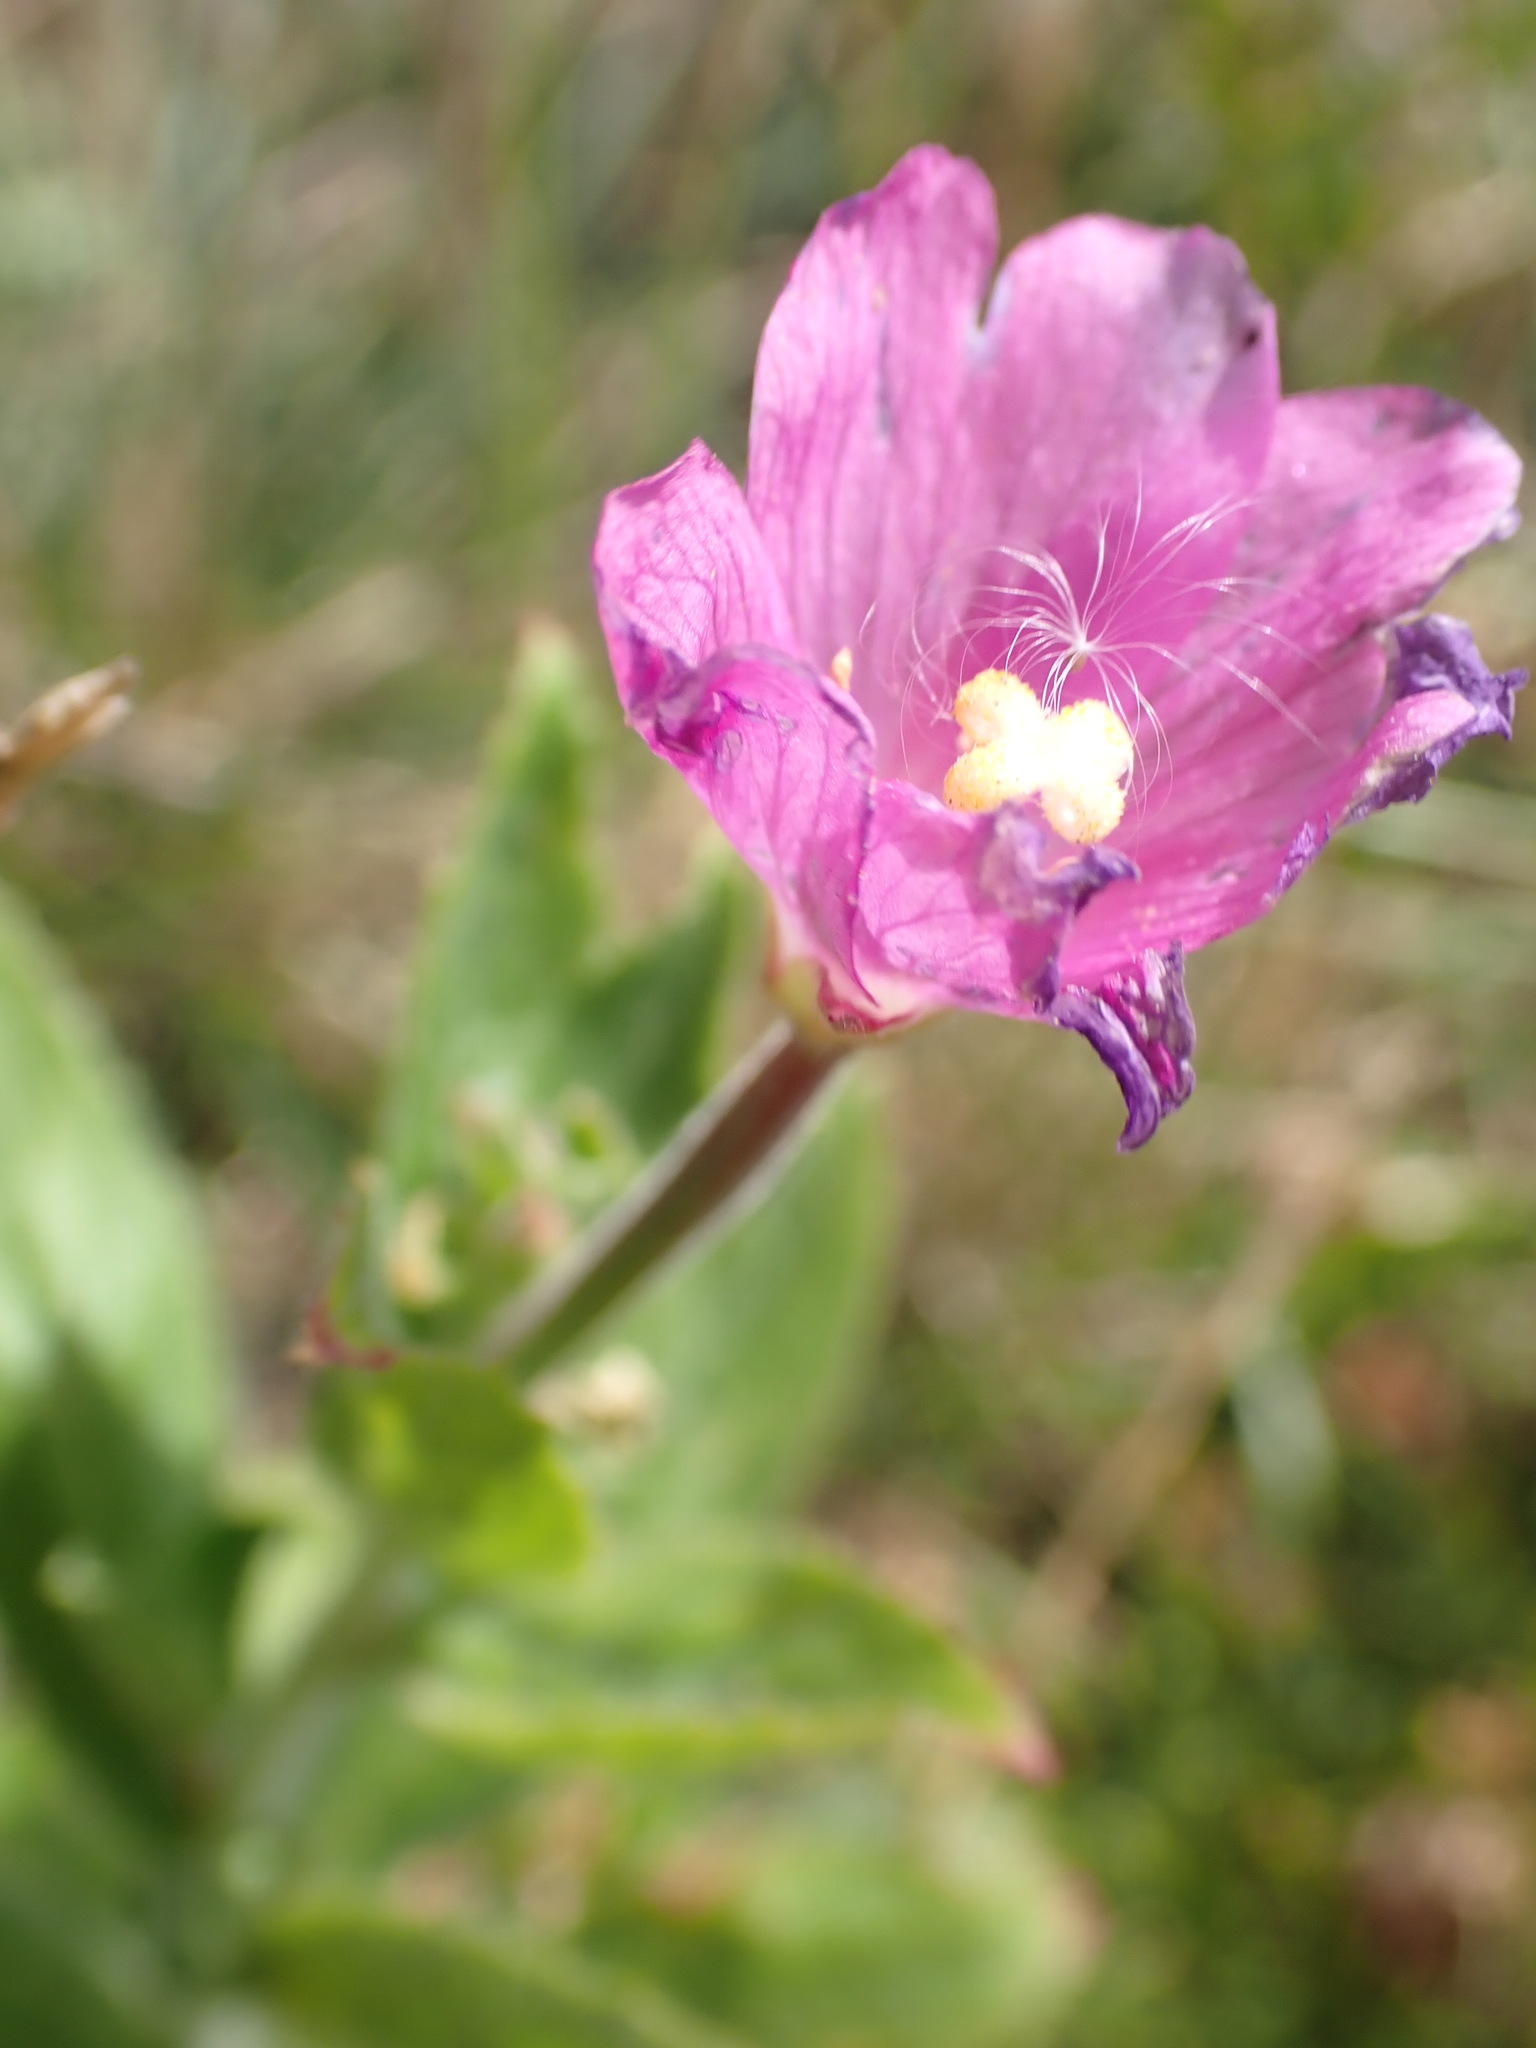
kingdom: Plantae
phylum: Tracheophyta
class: Magnoliopsida
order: Myrtales
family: Onagraceae
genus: Epilobium
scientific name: Epilobium hirsutum
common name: Great willowherb
